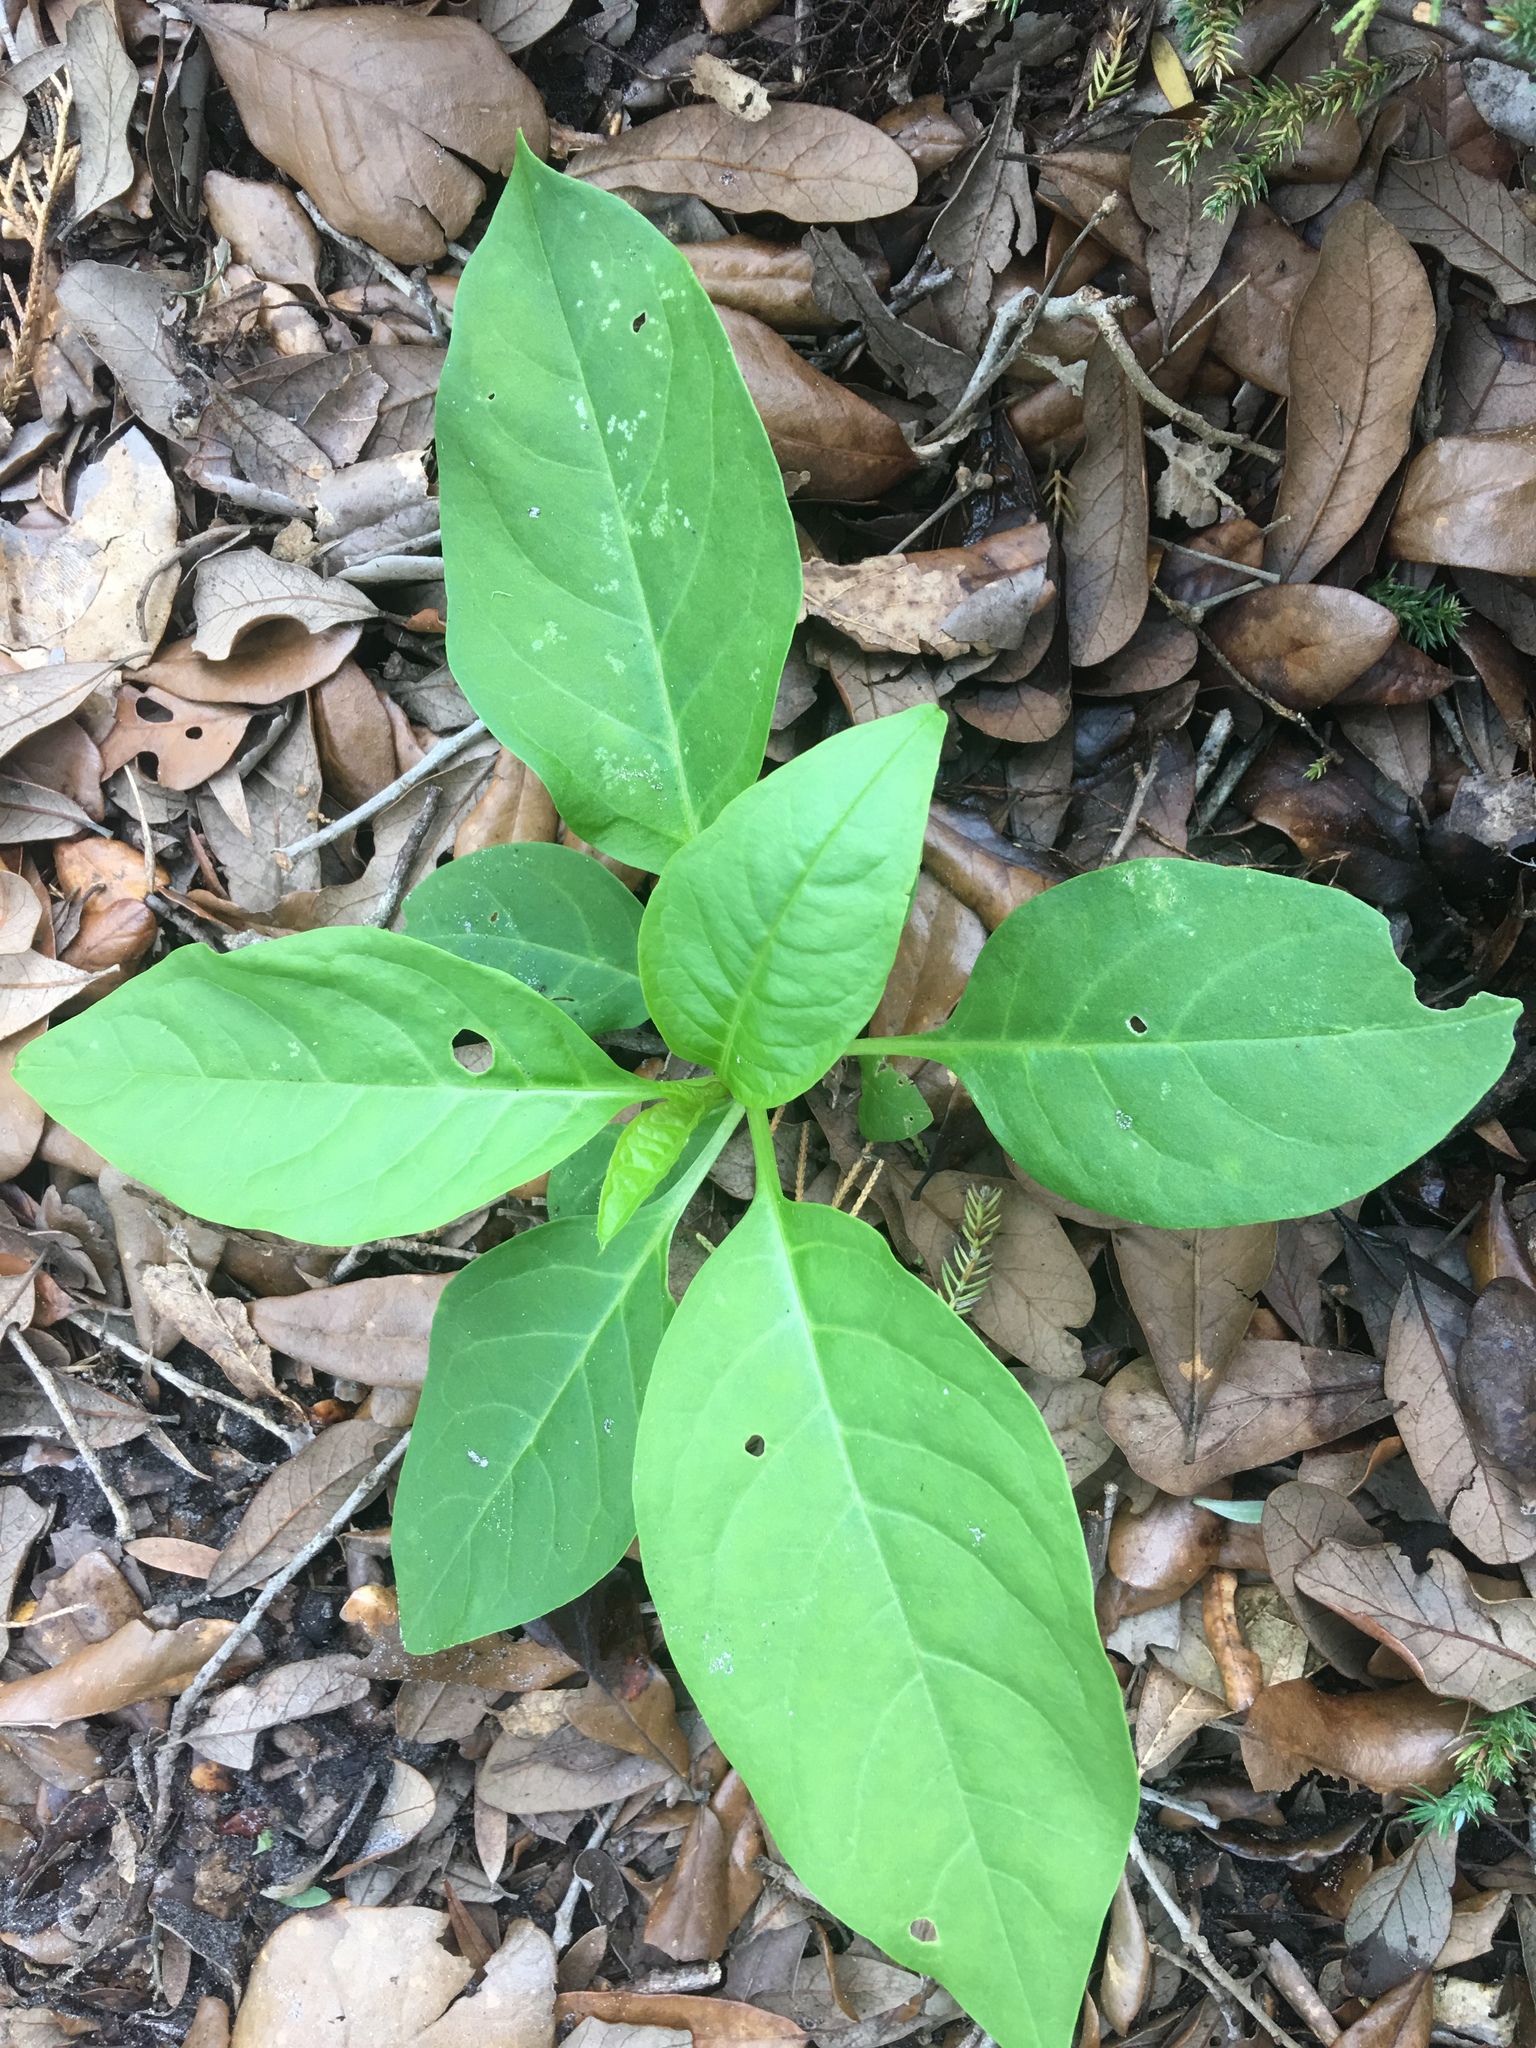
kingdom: Plantae
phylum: Tracheophyta
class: Magnoliopsida
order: Caryophyllales
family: Phytolaccaceae
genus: Phytolacca
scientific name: Phytolacca americana
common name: American pokeweed
